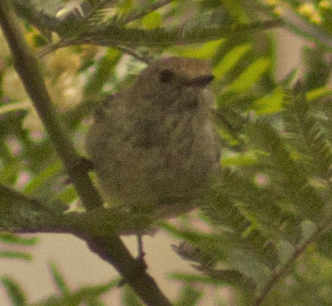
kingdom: Animalia
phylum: Chordata
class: Aves
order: Passeriformes
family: Acanthizidae
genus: Acanthiza
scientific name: Acanthiza pusilla
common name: Brown thornbill
